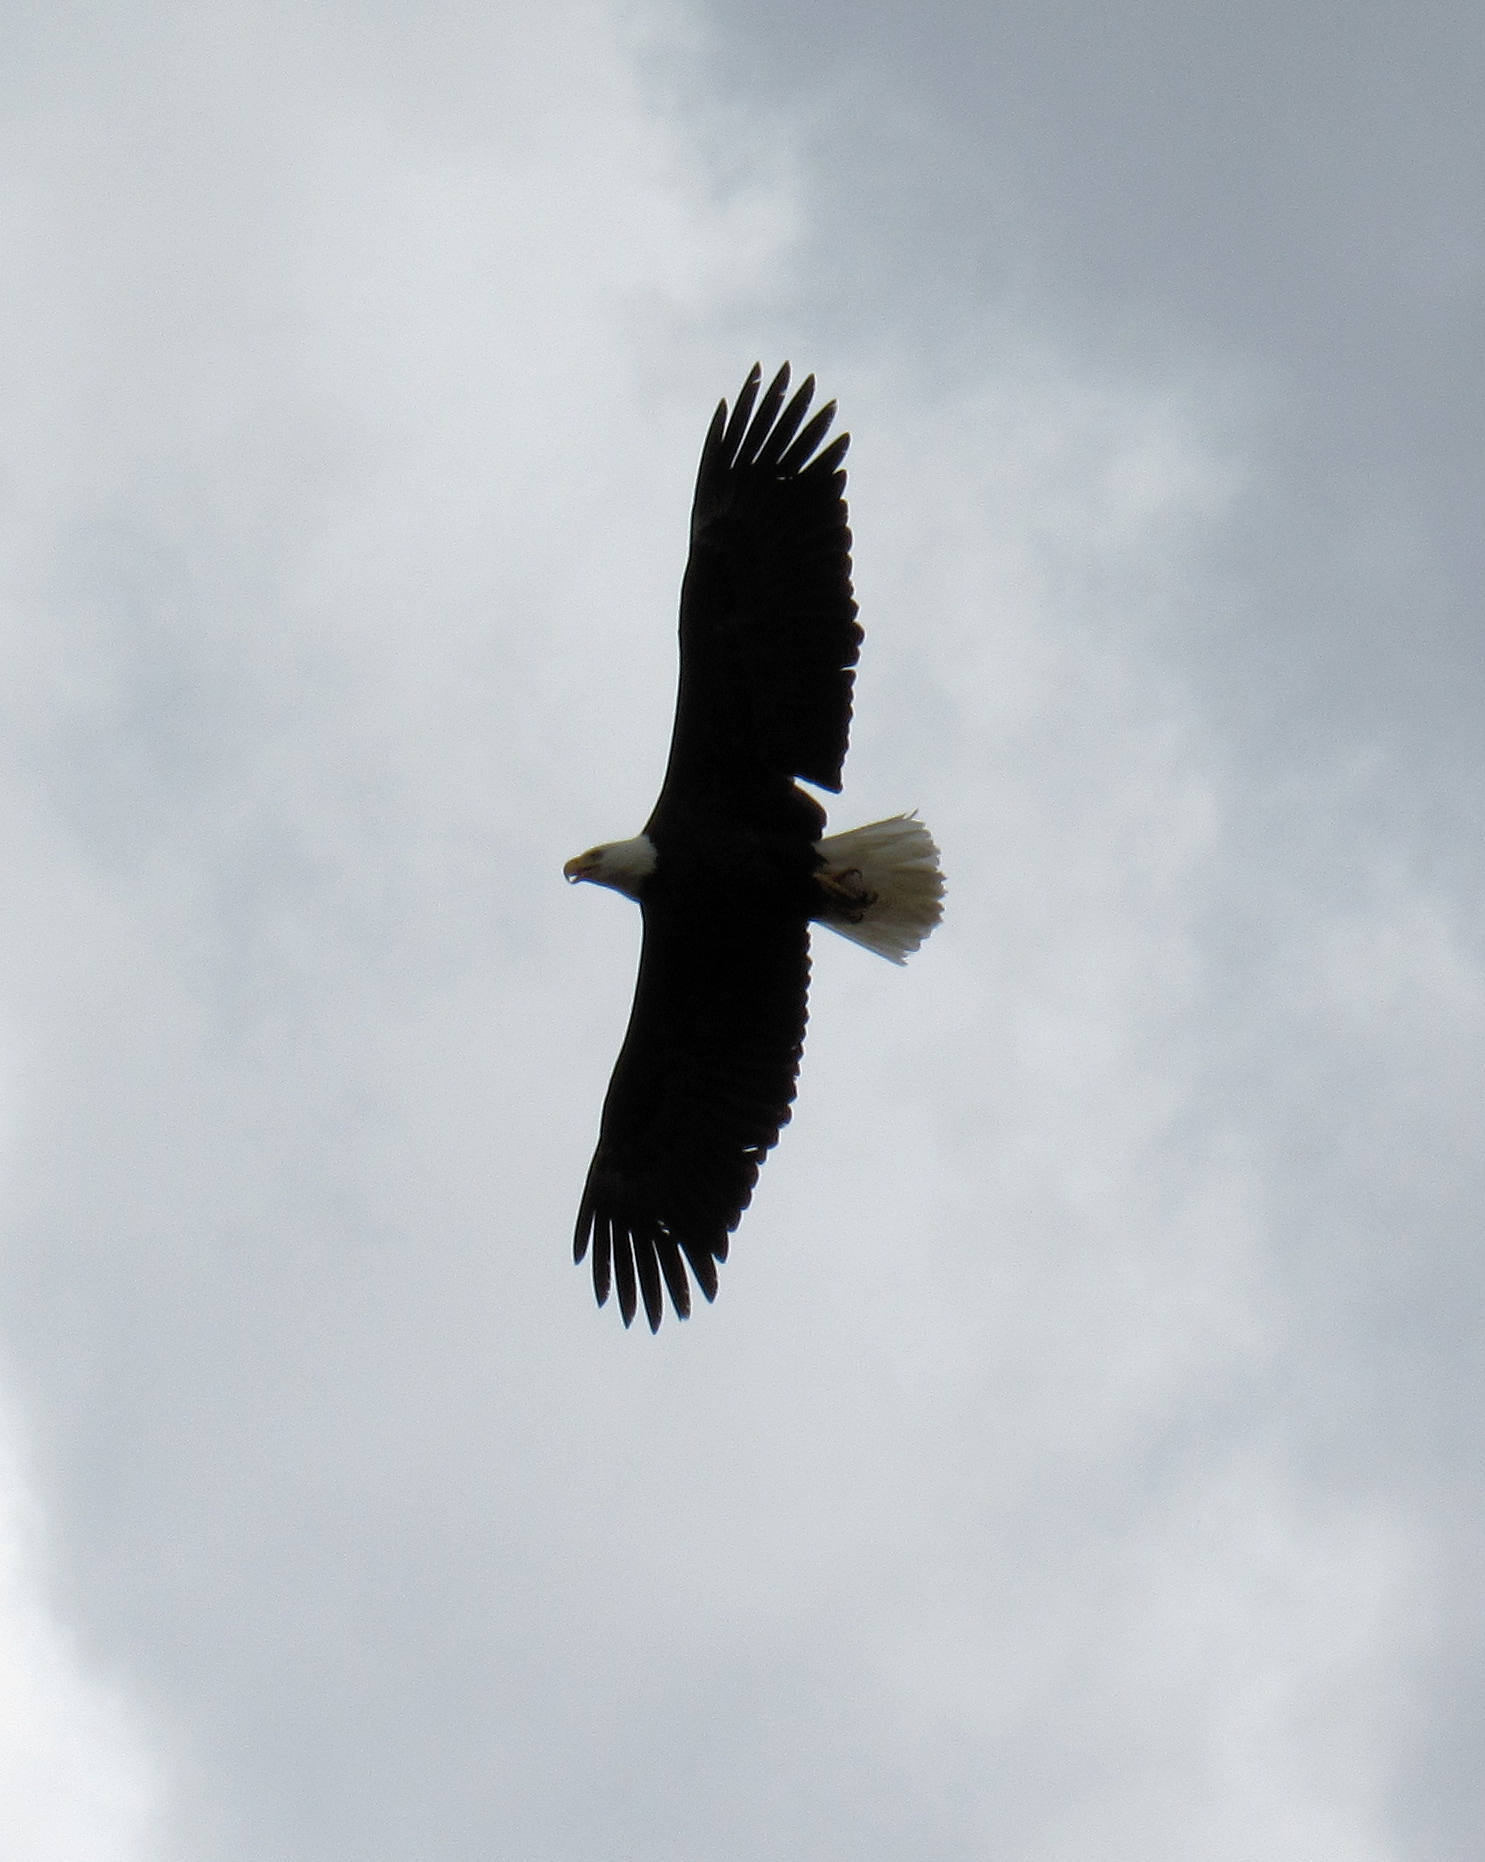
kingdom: Animalia
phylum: Chordata
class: Aves
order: Accipitriformes
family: Accipitridae
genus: Haliaeetus
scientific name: Haliaeetus leucocephalus
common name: Bald eagle
